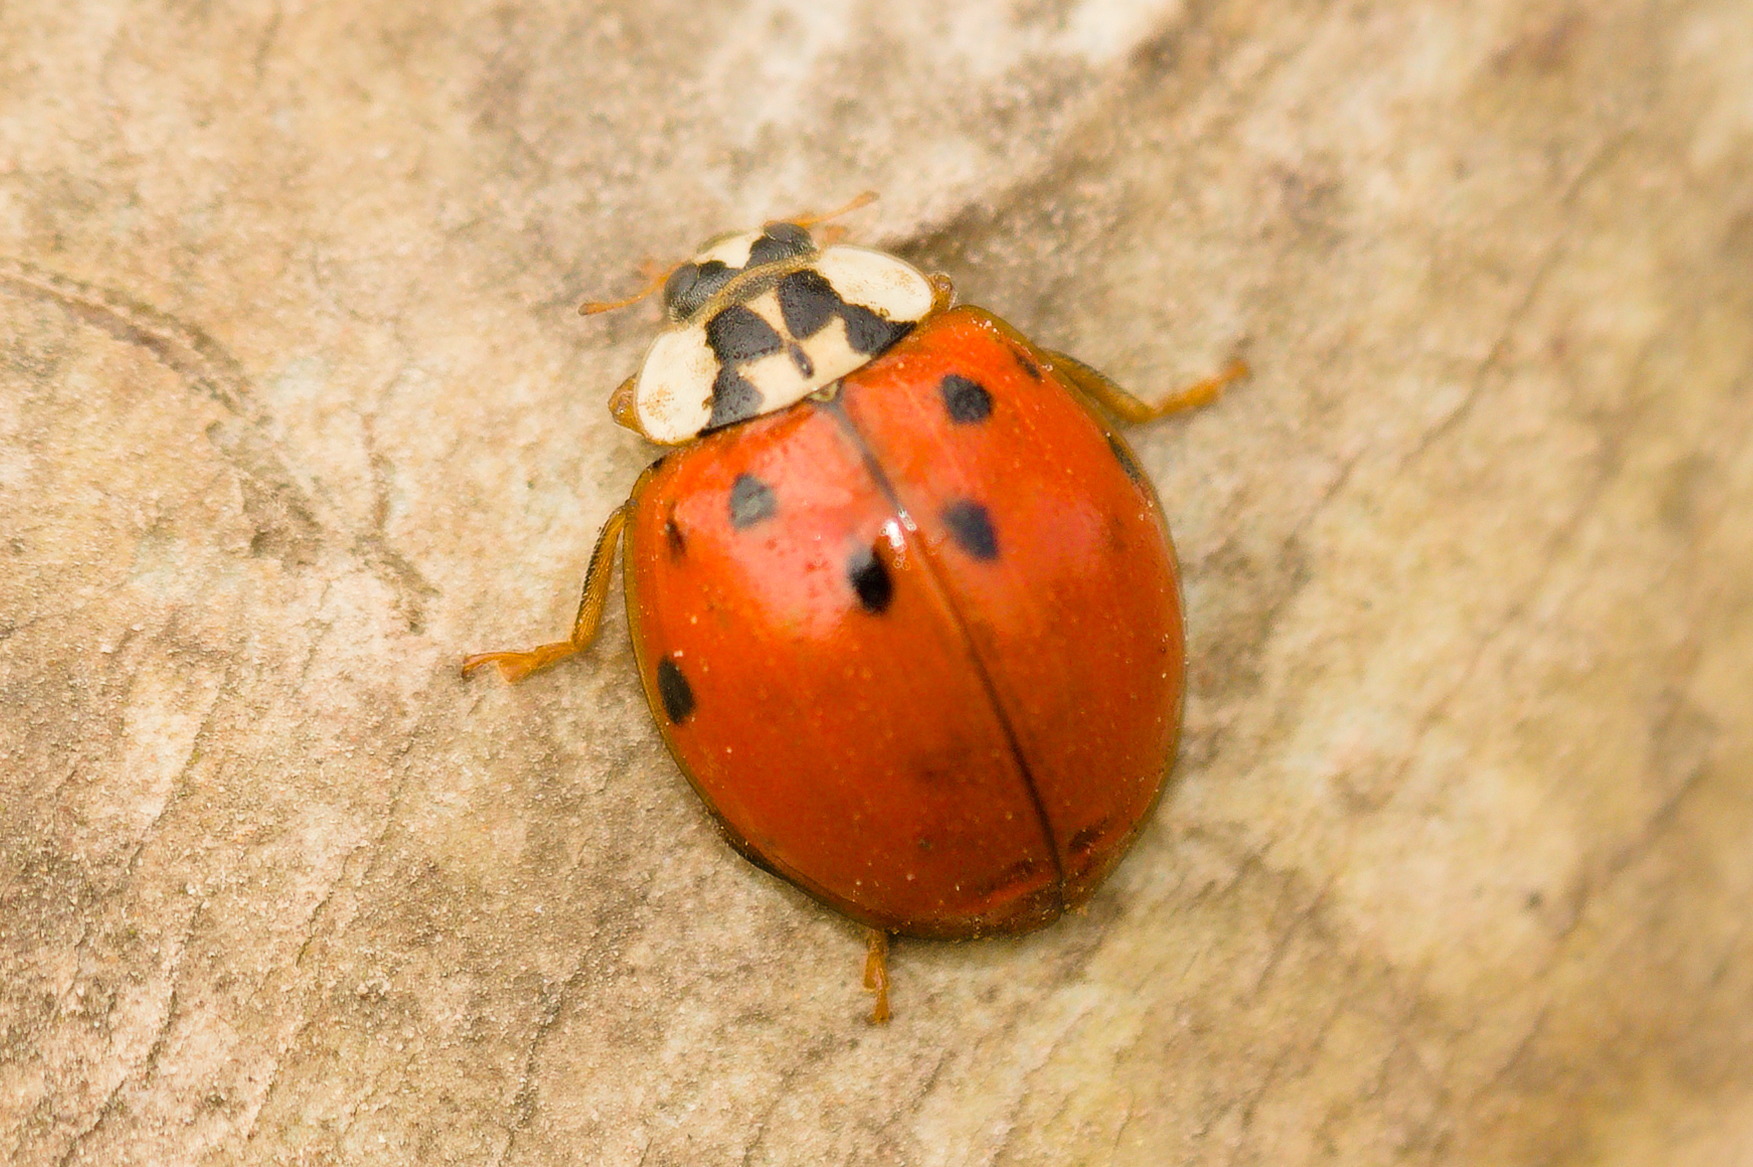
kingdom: Animalia
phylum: Arthropoda
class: Insecta
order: Coleoptera
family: Coccinellidae
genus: Harmonia
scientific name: Harmonia axyridis
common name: Harlequin ladybird
